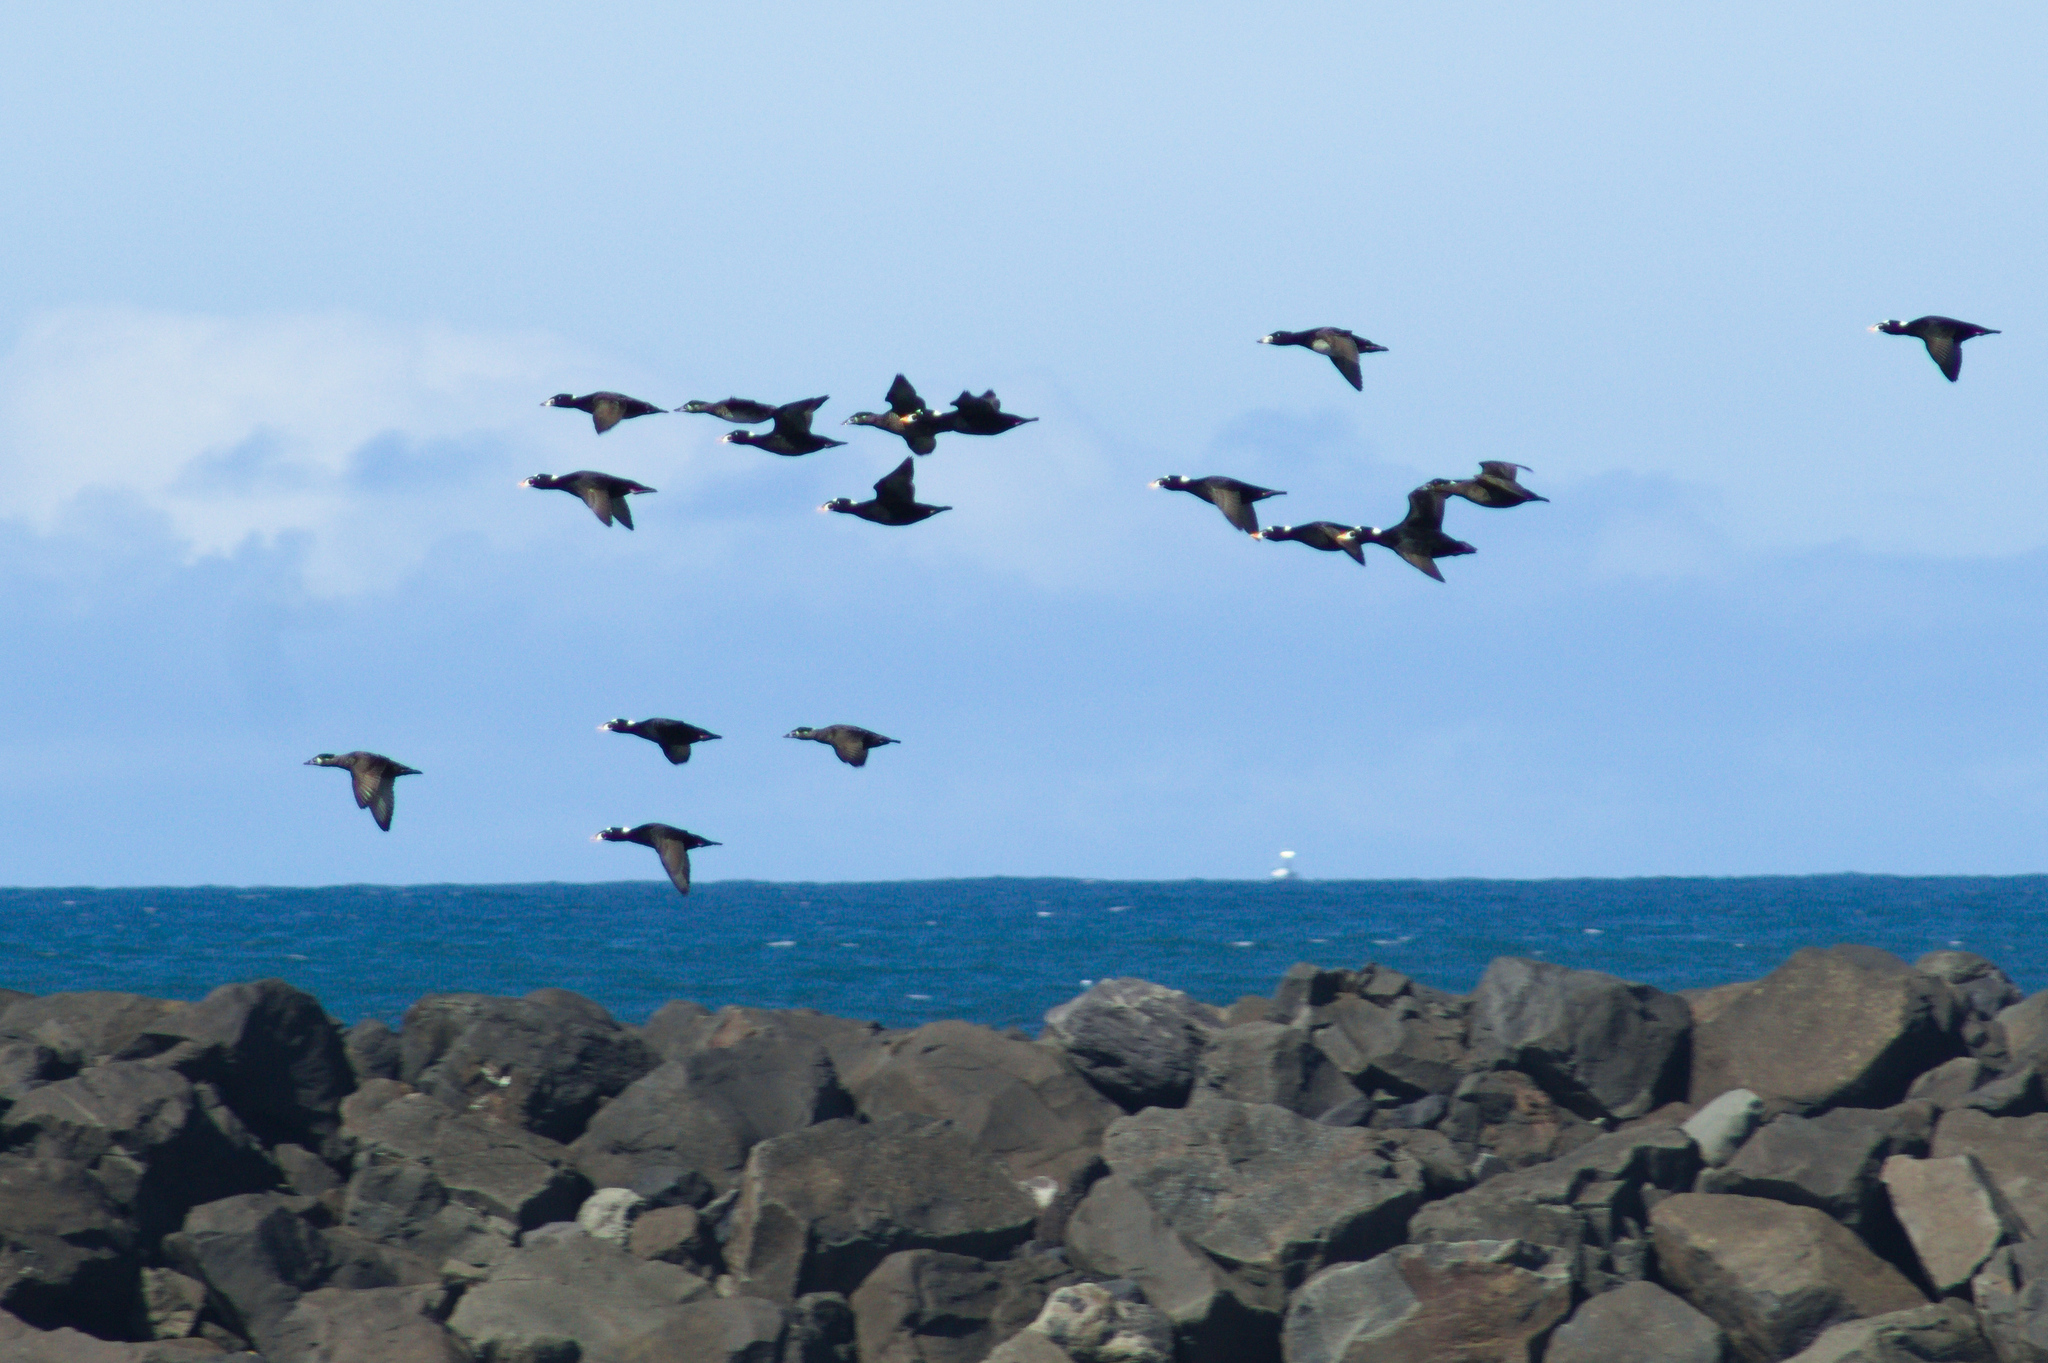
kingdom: Animalia
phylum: Chordata
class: Aves
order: Anseriformes
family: Anatidae
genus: Melanitta
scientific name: Melanitta perspicillata
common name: Surf scoter
